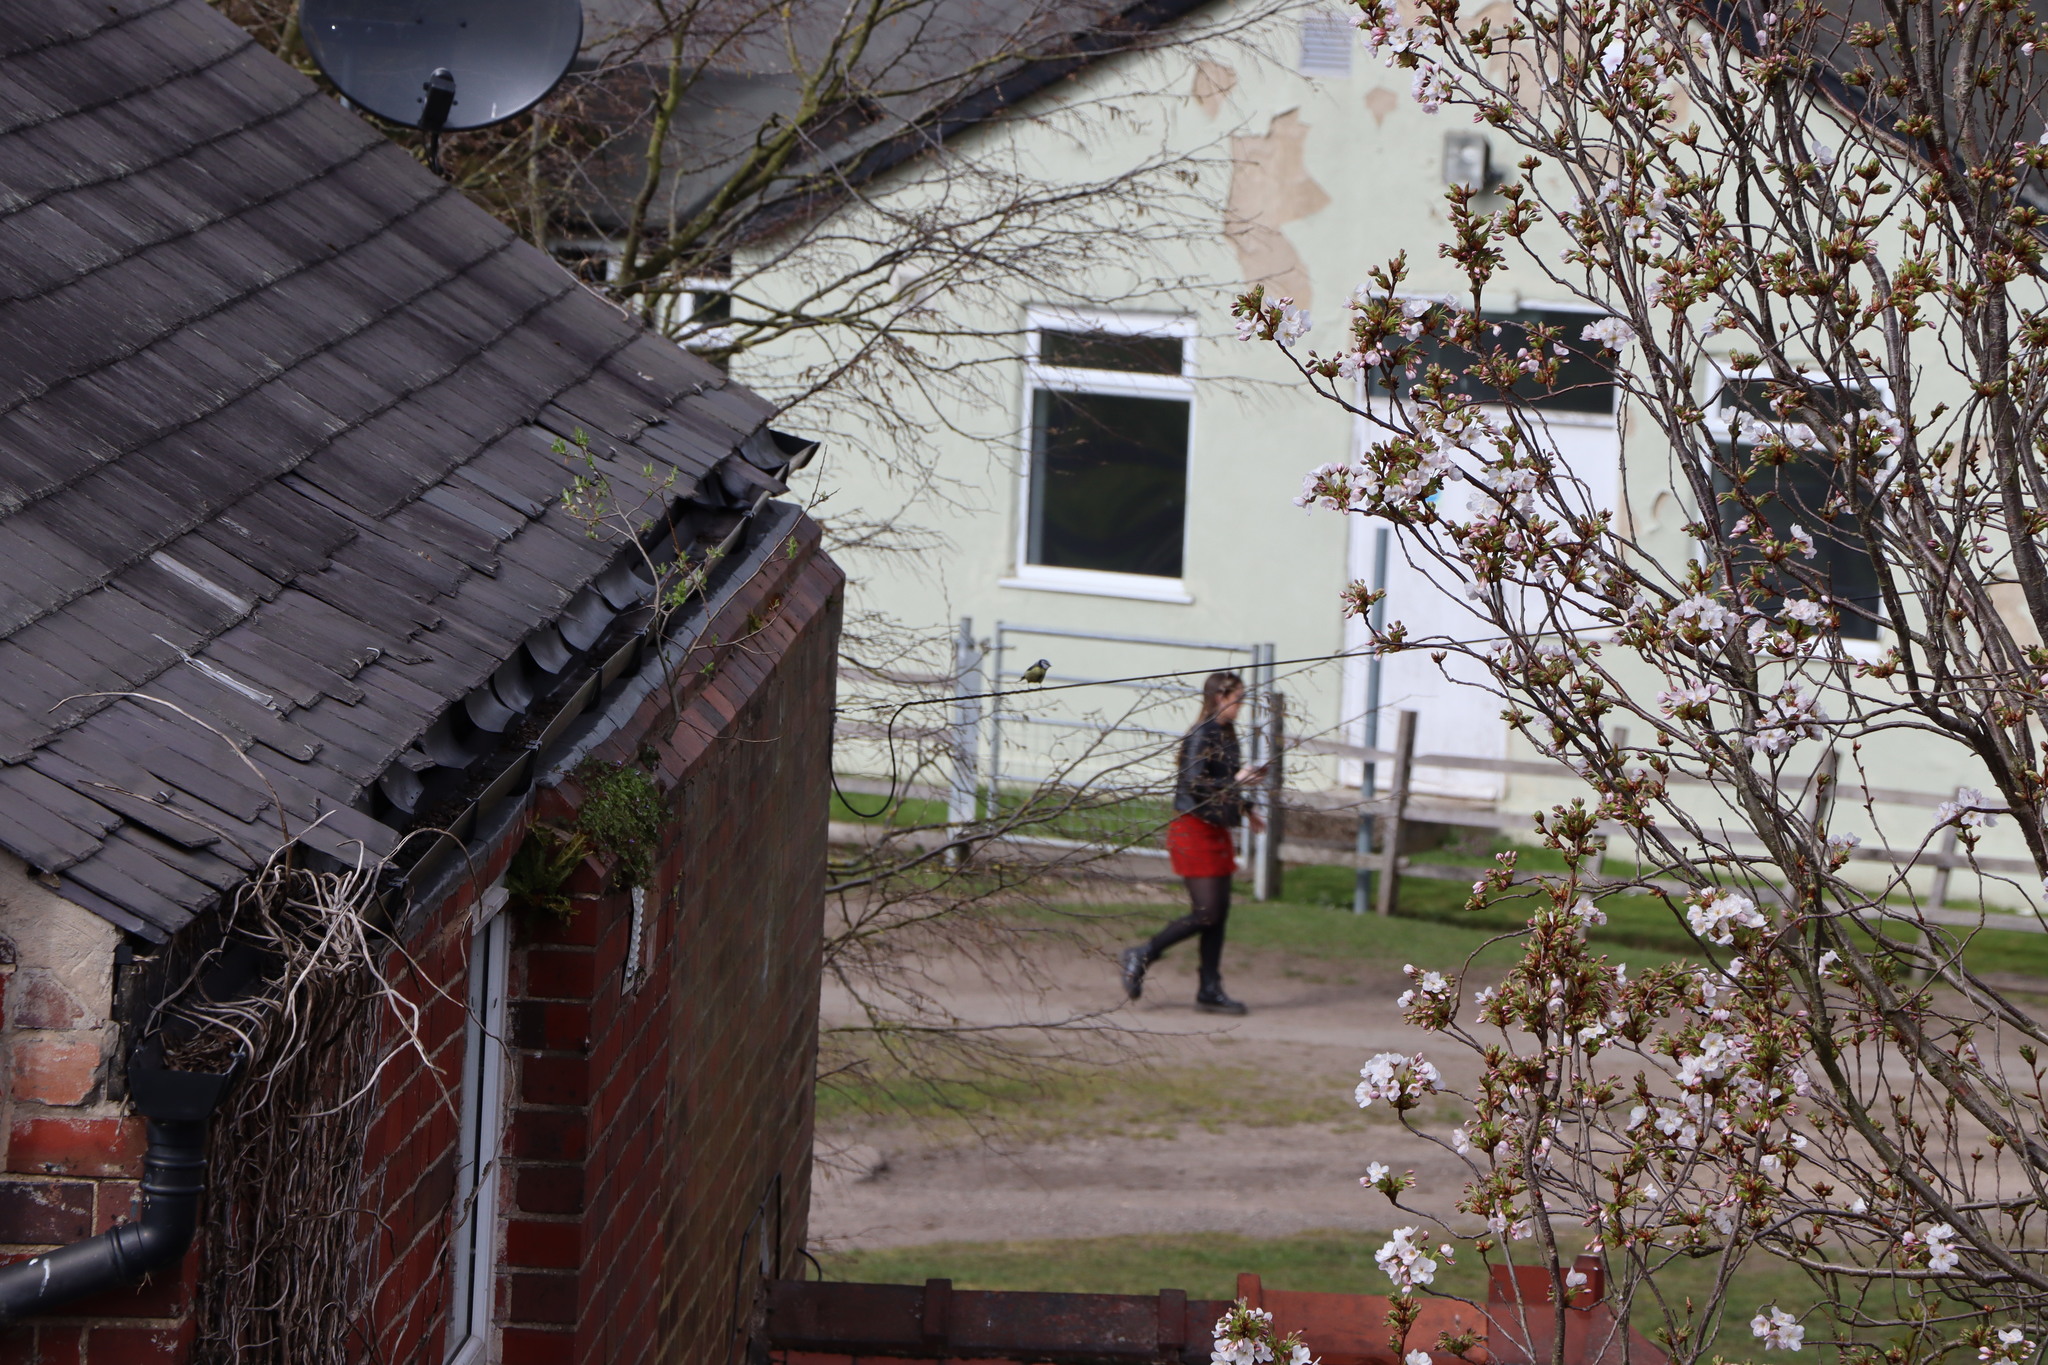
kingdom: Animalia
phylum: Chordata
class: Aves
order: Passeriformes
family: Paridae
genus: Cyanistes
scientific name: Cyanistes caeruleus
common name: Eurasian blue tit
